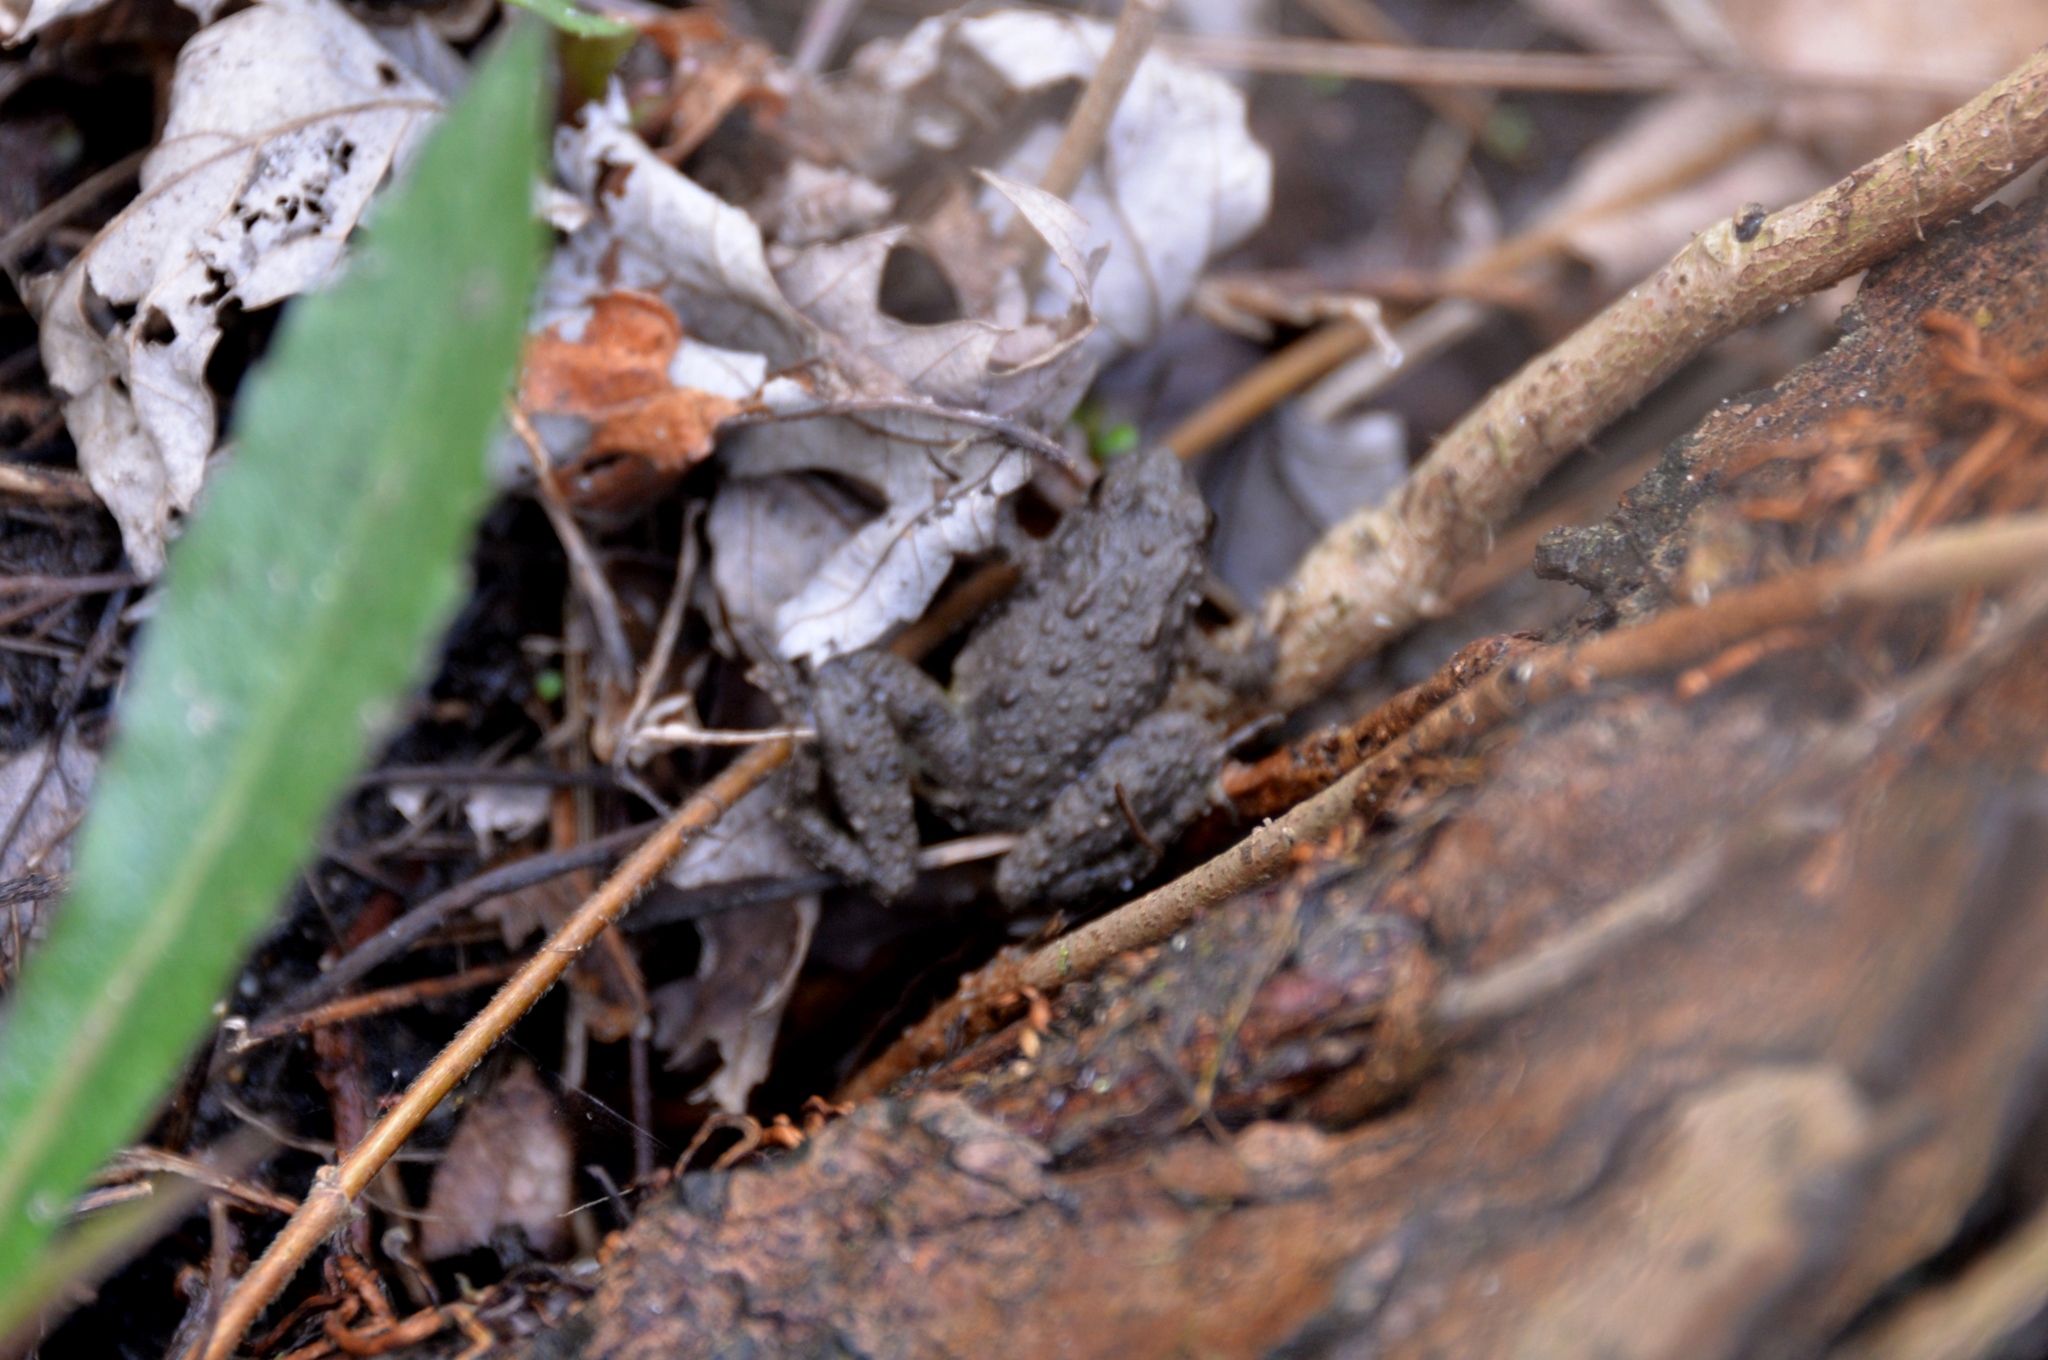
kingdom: Animalia
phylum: Chordata
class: Amphibia
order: Anura
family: Hylidae
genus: Acris
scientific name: Acris blanchardi
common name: Blanchard's cricket frog
